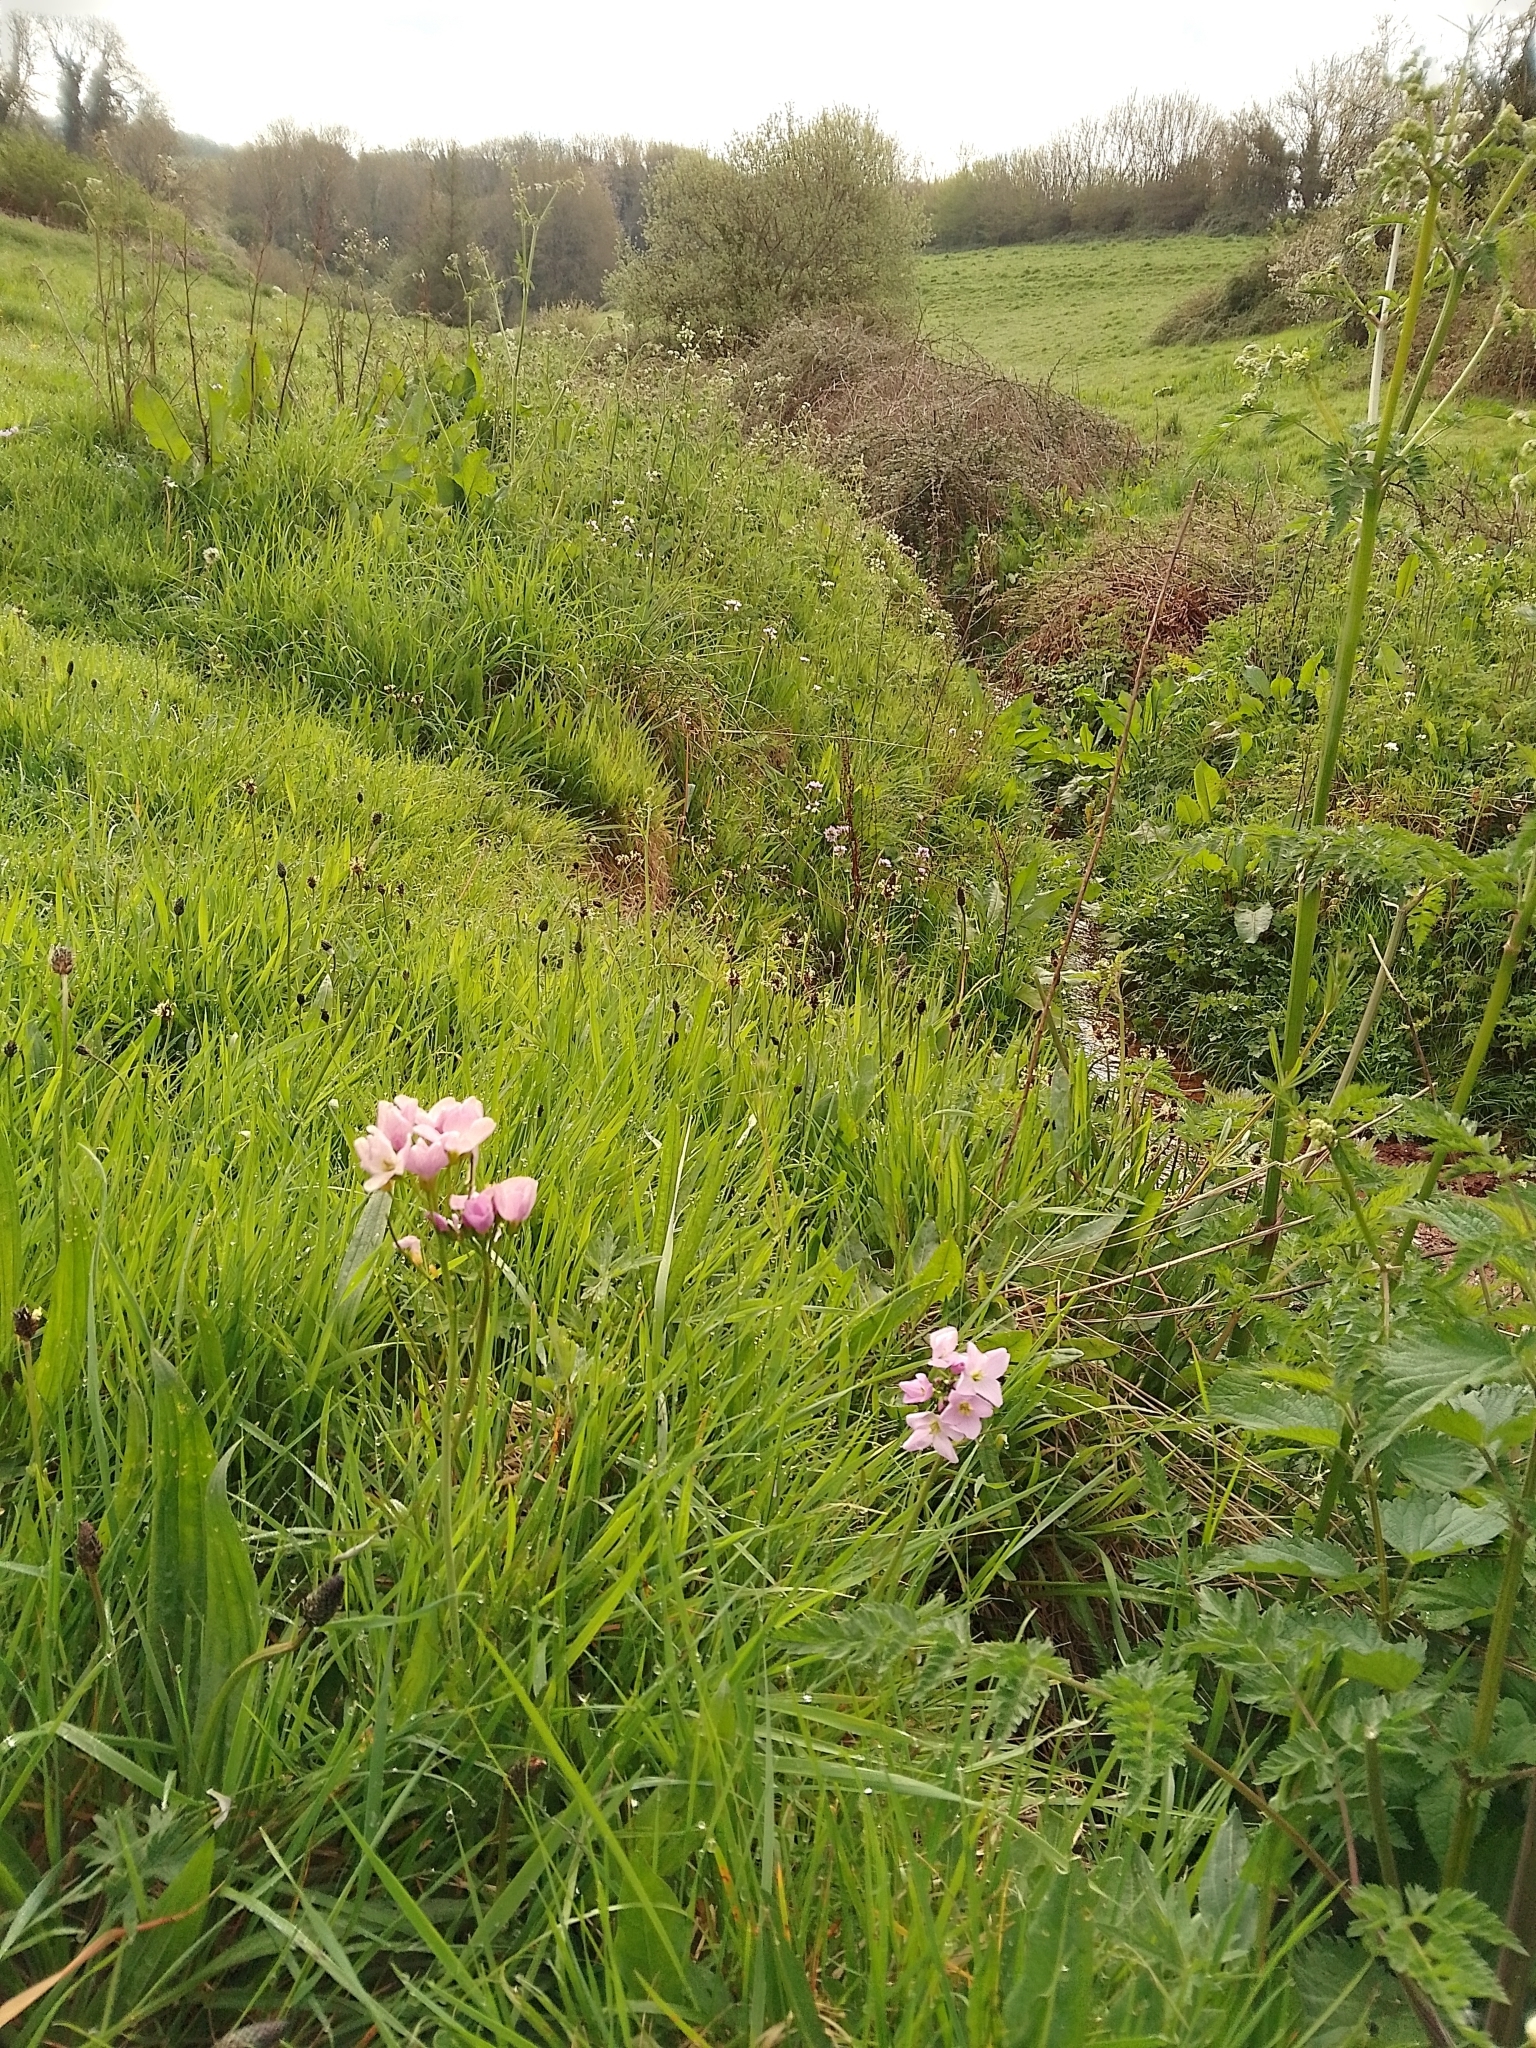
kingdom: Plantae
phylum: Tracheophyta
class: Magnoliopsida
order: Brassicales
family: Brassicaceae
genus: Cardamine
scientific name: Cardamine pratensis
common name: Cuckoo flower
